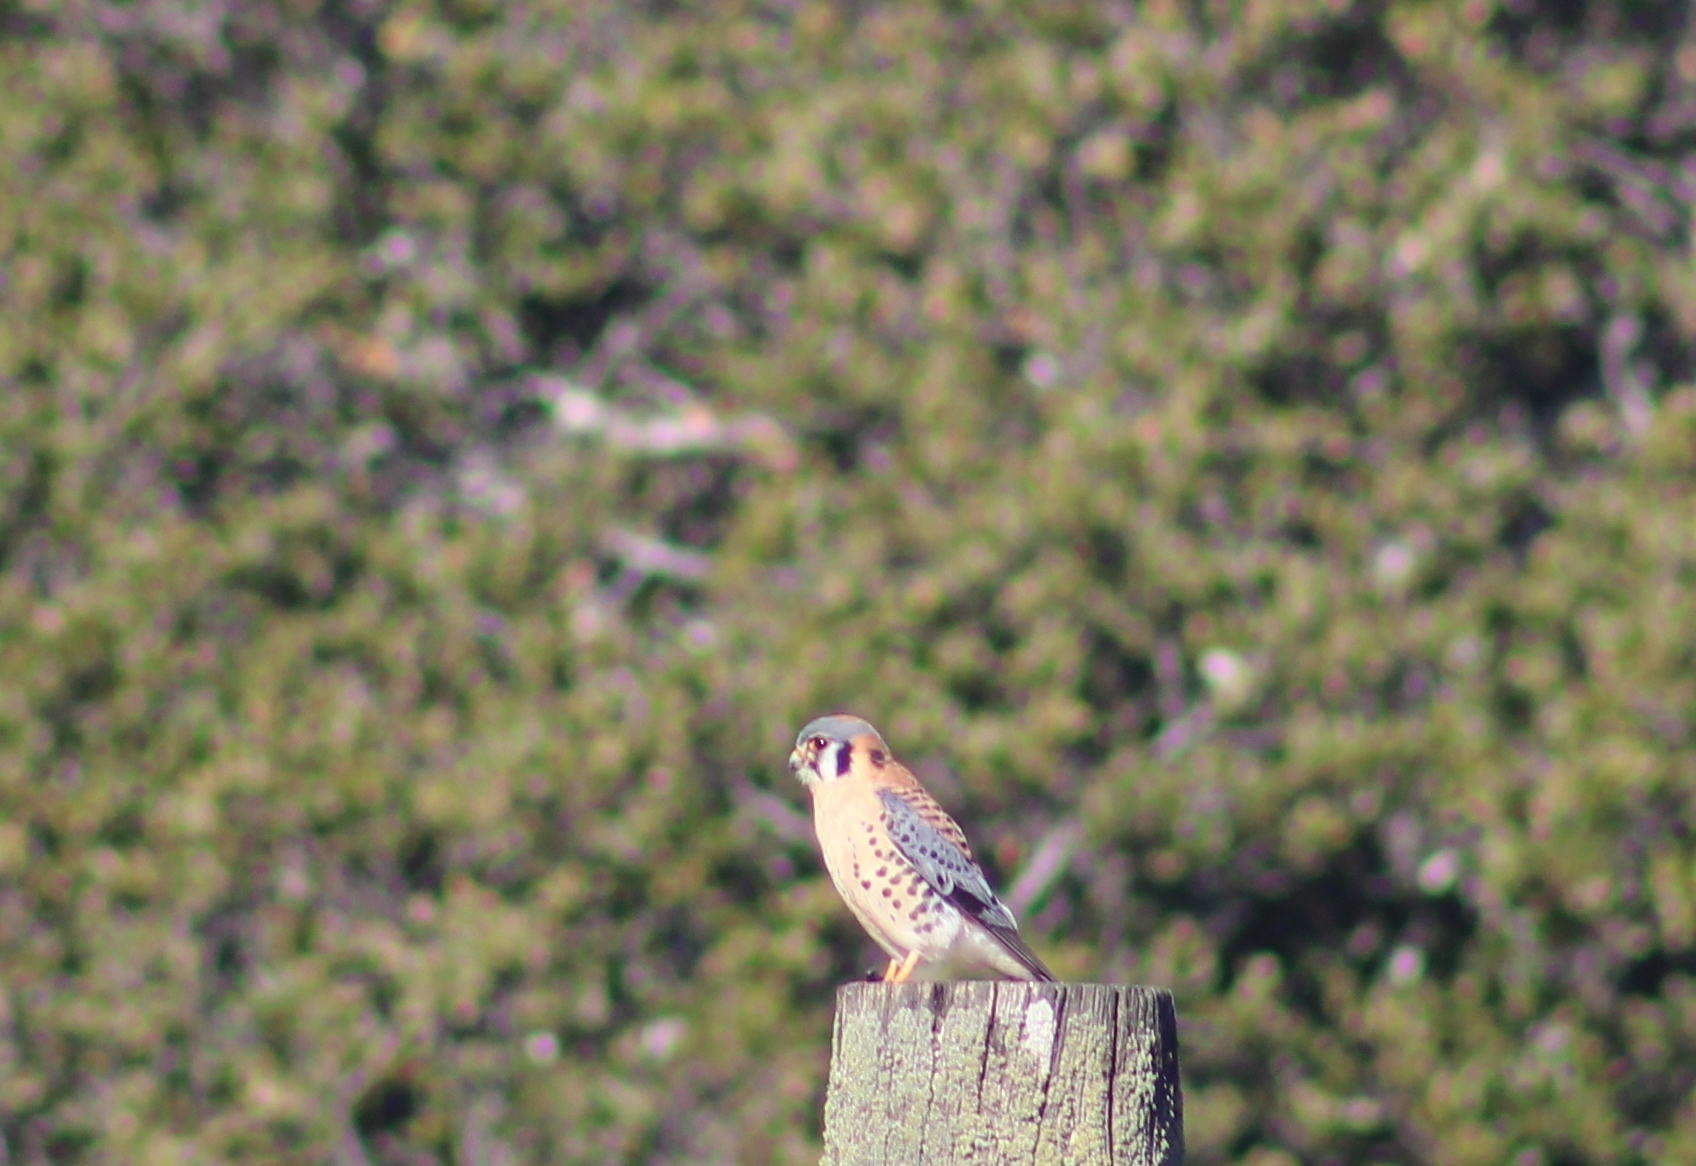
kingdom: Animalia
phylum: Chordata
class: Aves
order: Falconiformes
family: Falconidae
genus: Falco
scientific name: Falco sparverius
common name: American kestrel
